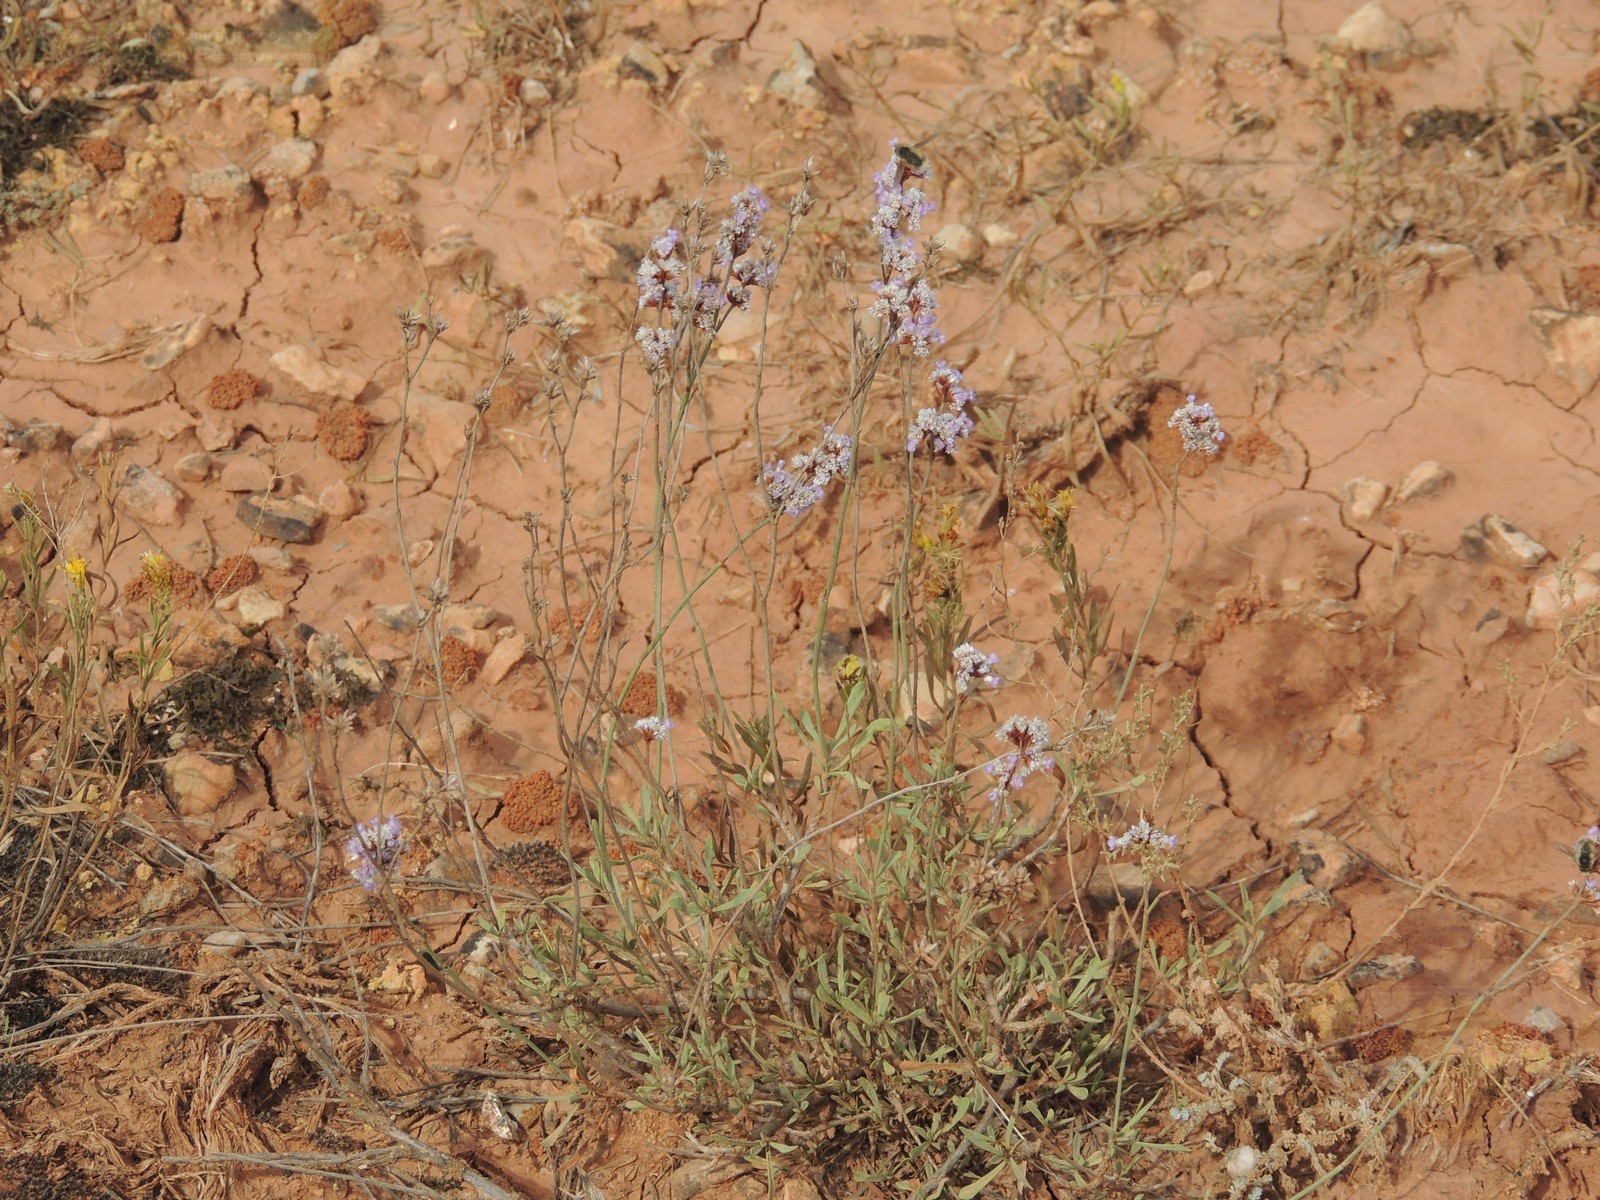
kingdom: Plantae
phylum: Tracheophyta
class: Magnoliopsida
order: Caryophyllales
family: Plumbaginaceae
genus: Limonium
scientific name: Limonium suffruticosum
